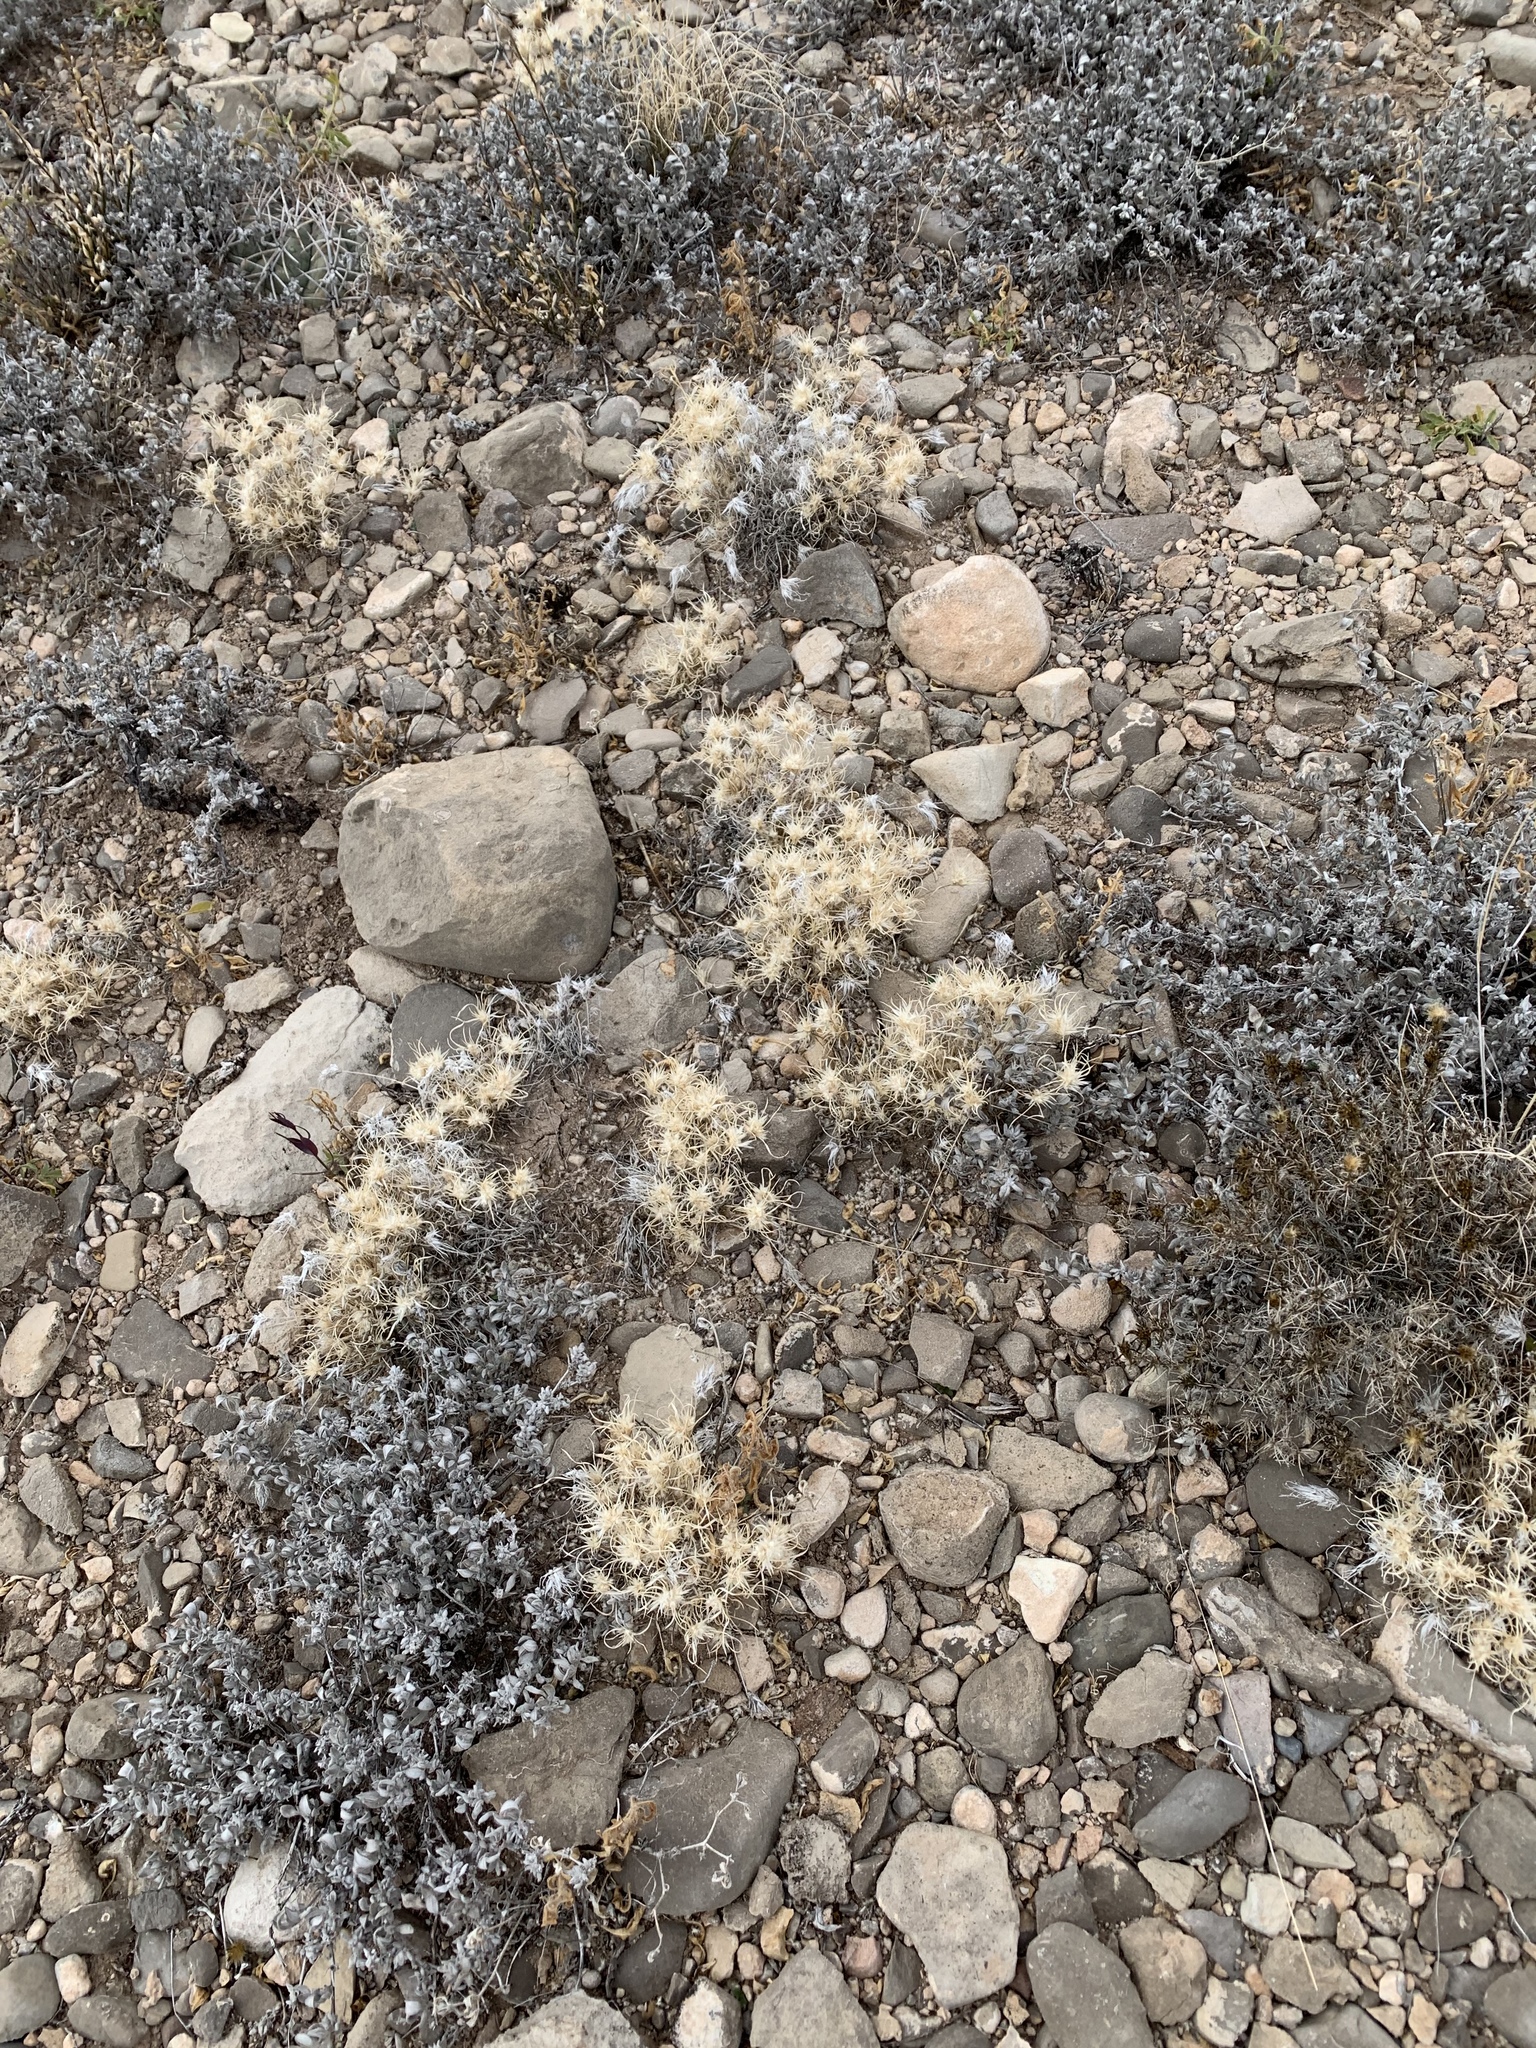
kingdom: Plantae
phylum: Tracheophyta
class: Liliopsida
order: Poales
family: Poaceae
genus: Dasyochloa
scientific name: Dasyochloa pulchella
